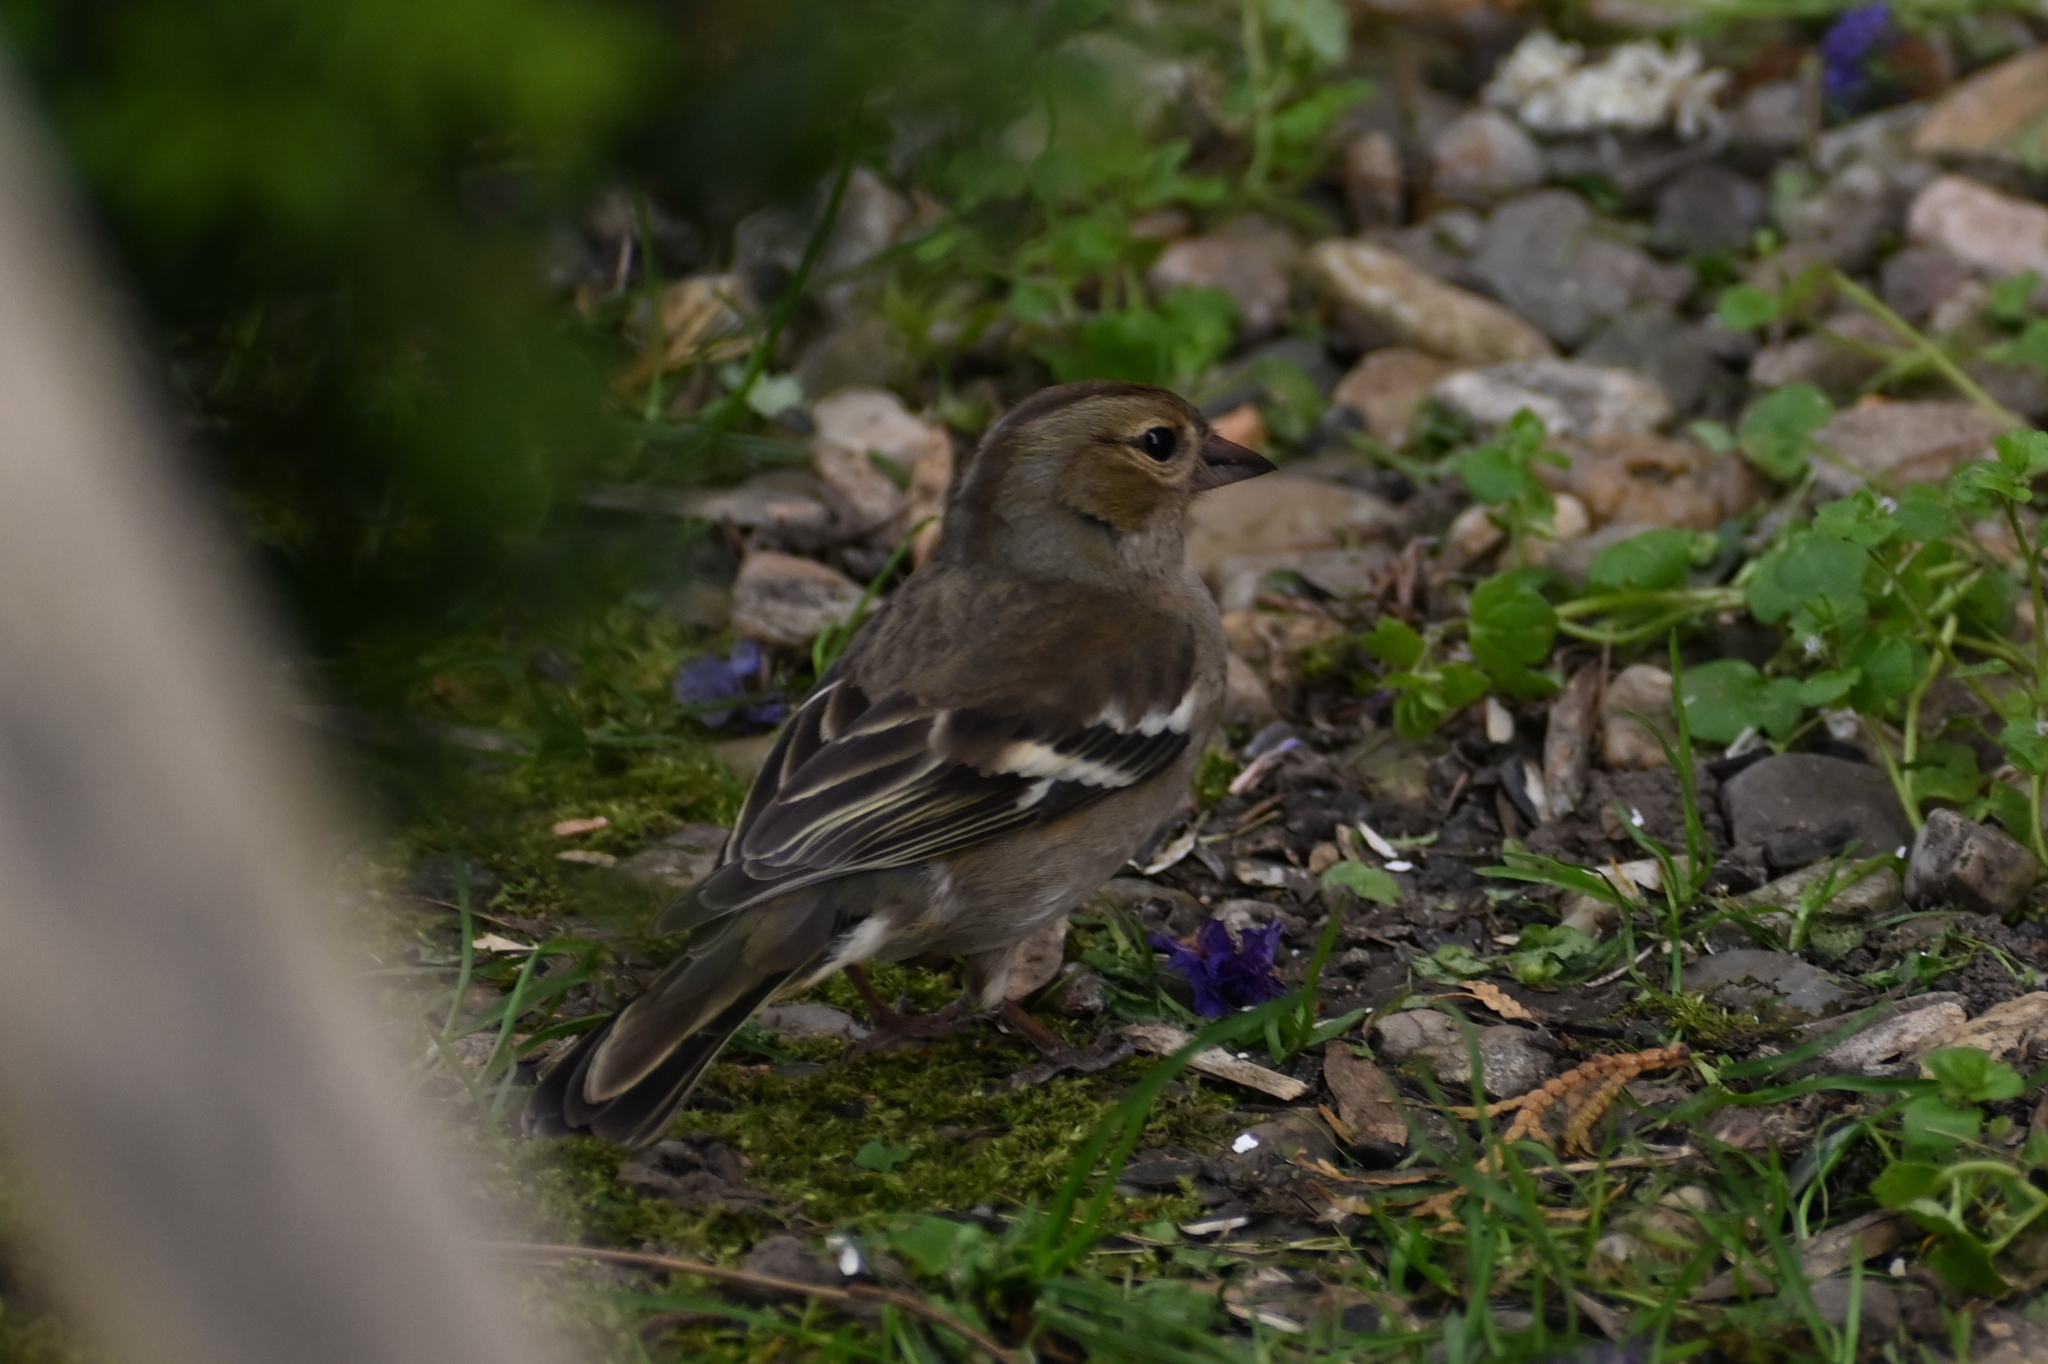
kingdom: Animalia
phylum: Chordata
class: Aves
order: Passeriformes
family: Fringillidae
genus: Fringilla
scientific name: Fringilla coelebs
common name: Common chaffinch
